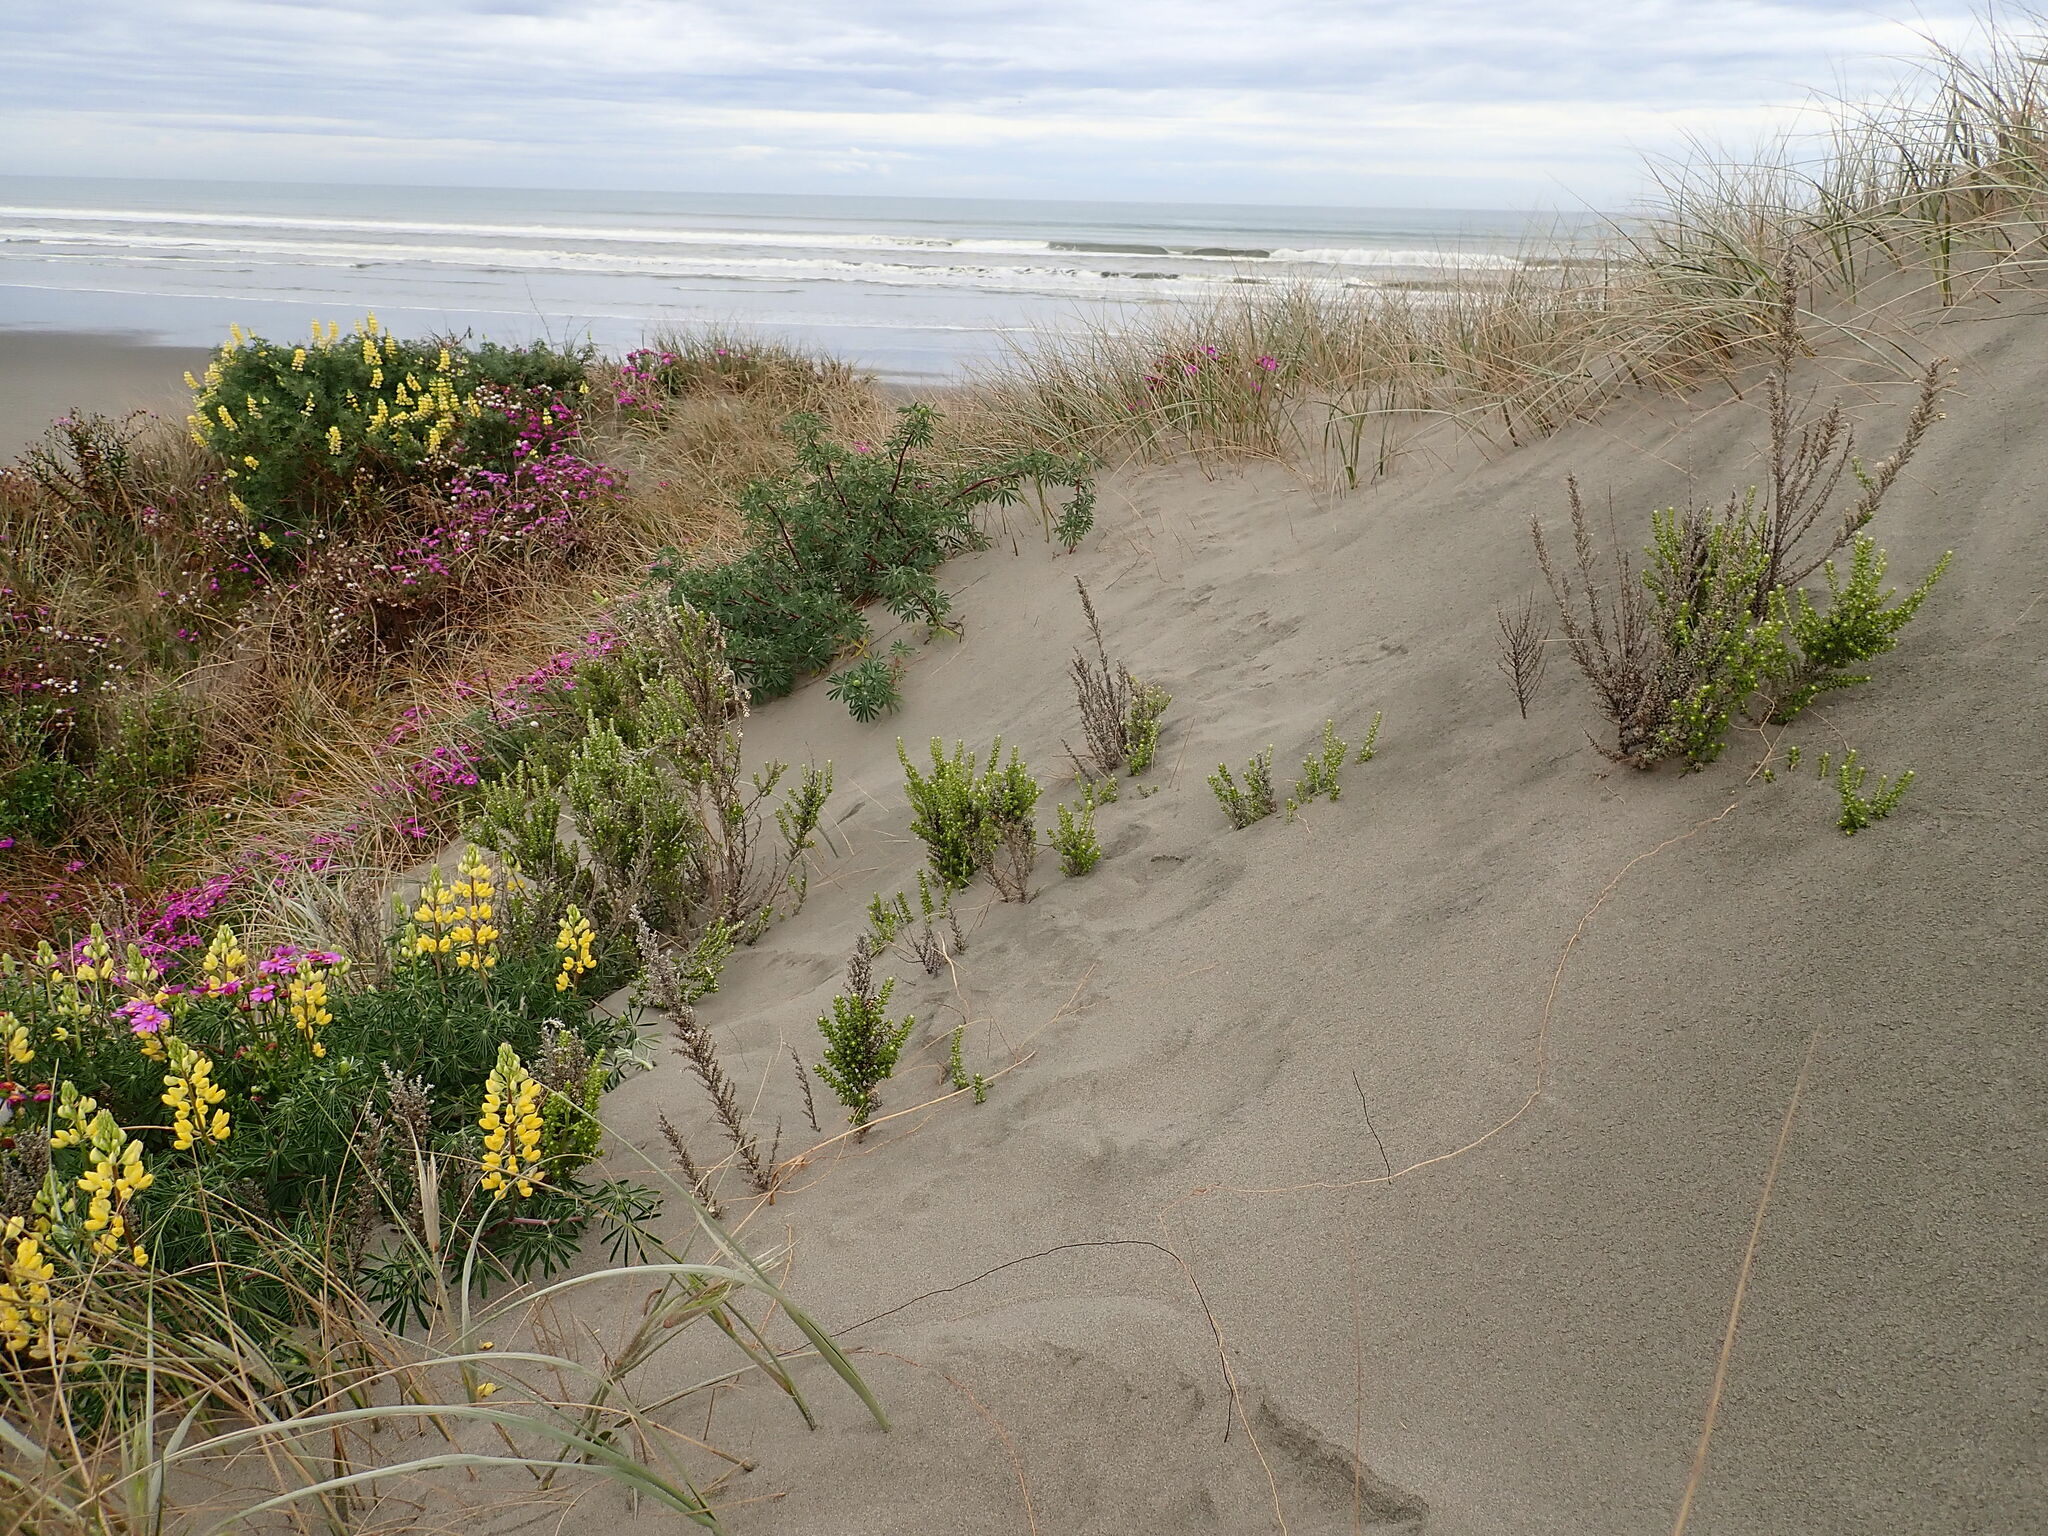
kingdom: Plantae
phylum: Tracheophyta
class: Magnoliopsida
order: Asterales
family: Asteraceae
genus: Ozothamnus
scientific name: Ozothamnus leptophyllus
